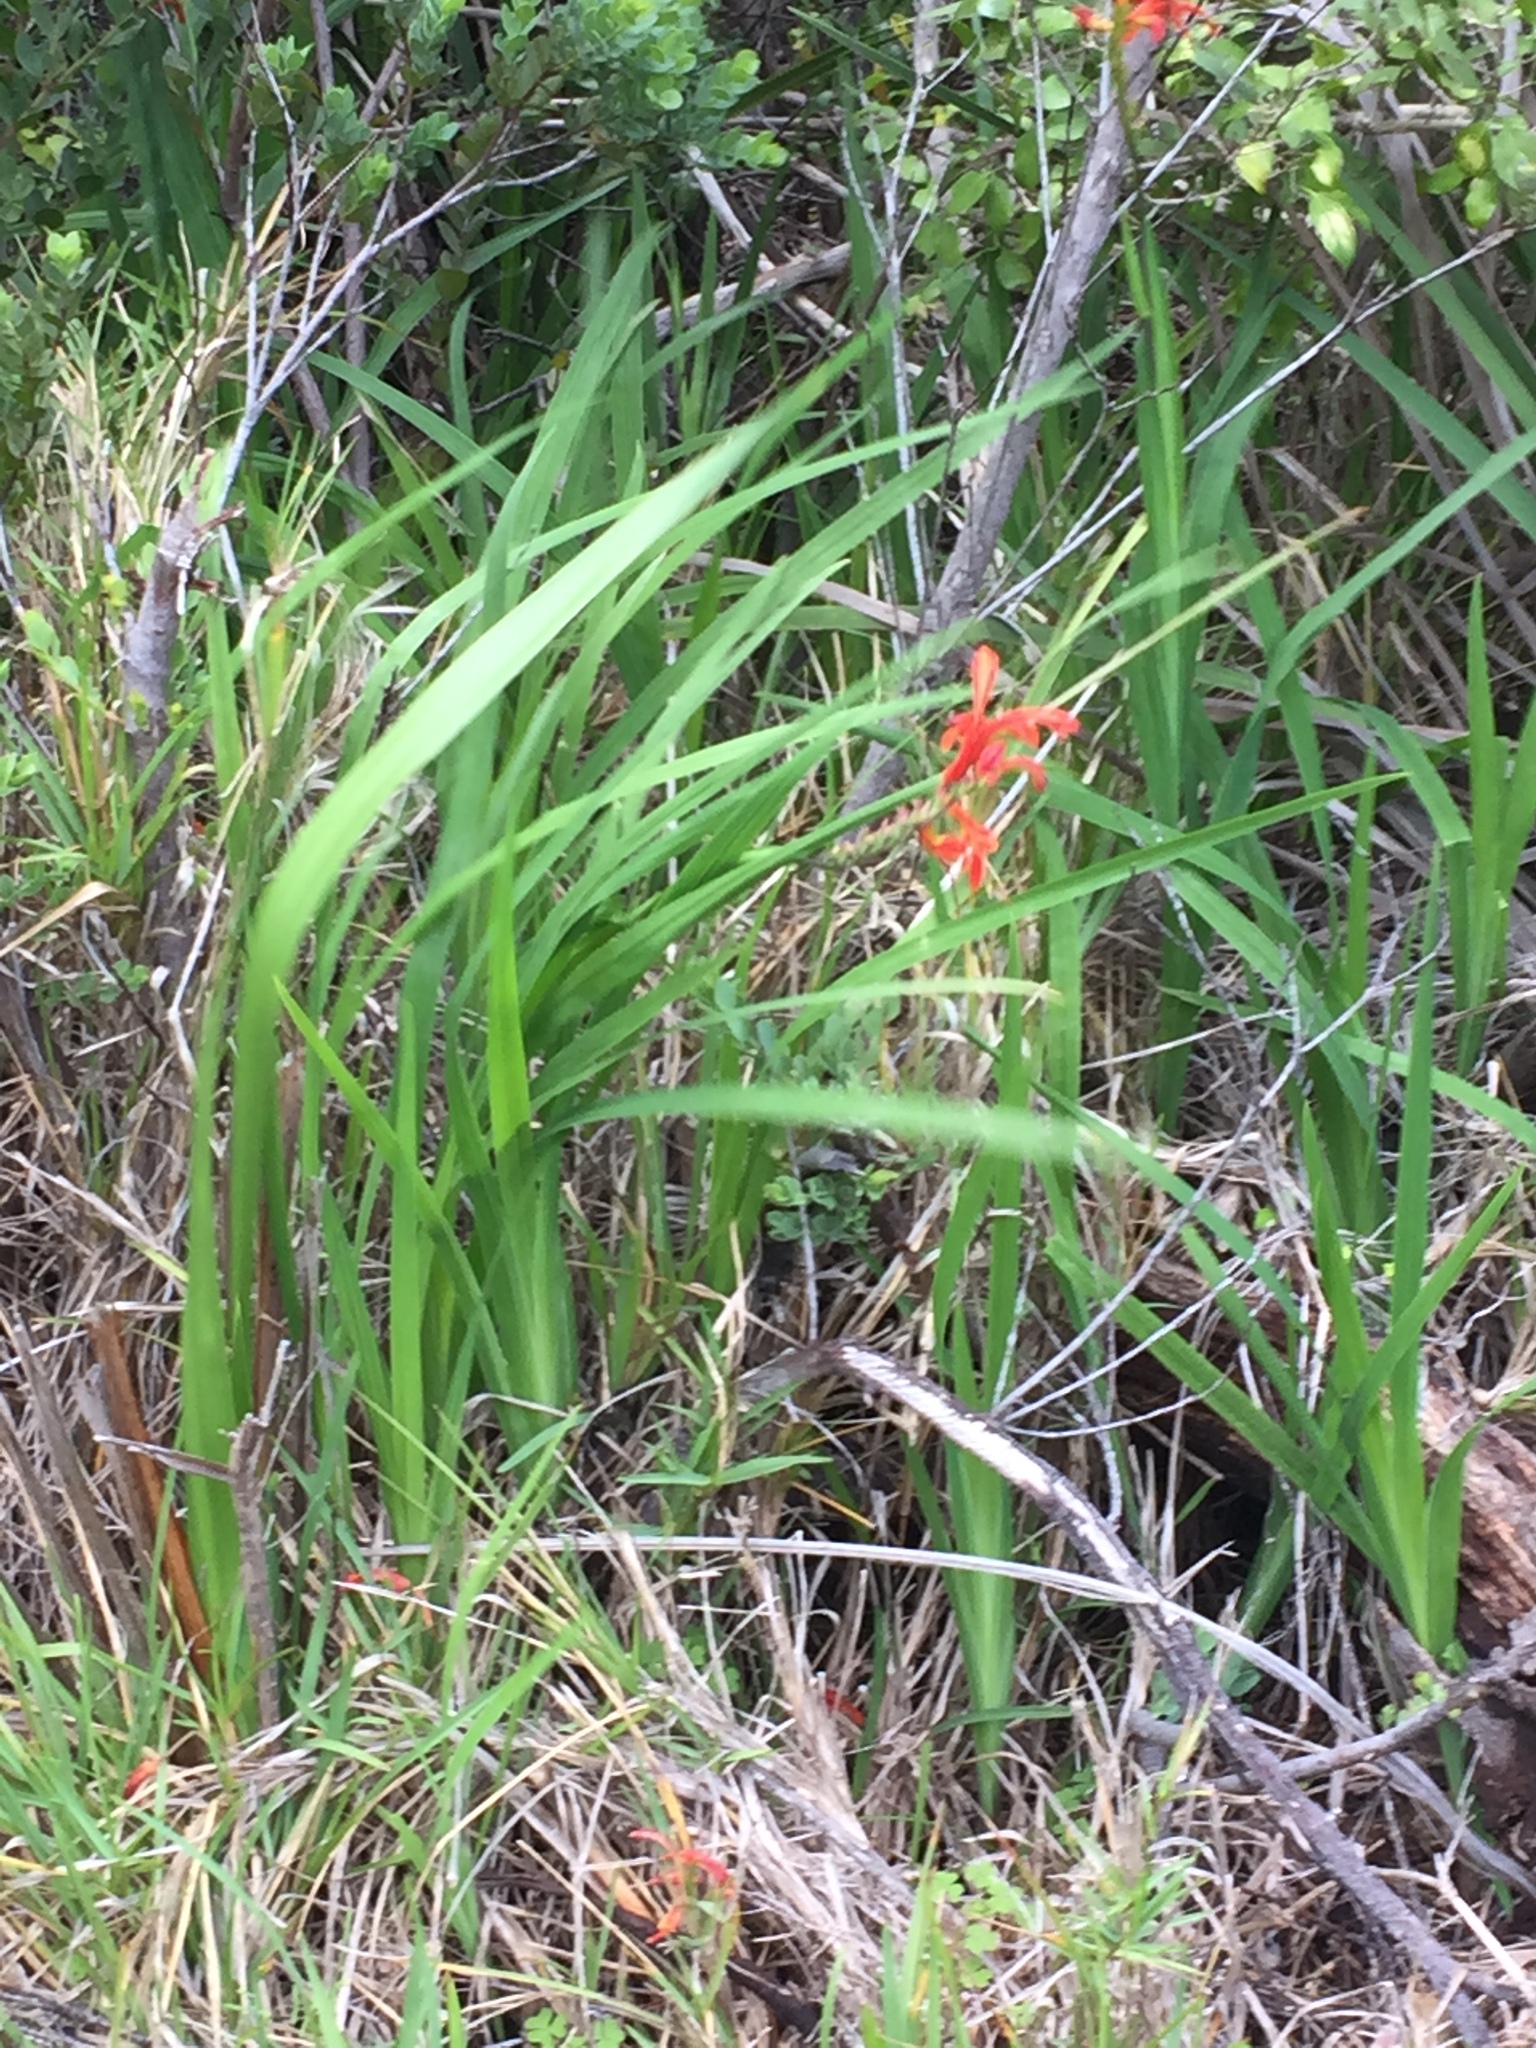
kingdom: Plantae
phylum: Tracheophyta
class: Liliopsida
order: Asparagales
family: Iridaceae
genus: Chasmanthe
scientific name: Chasmanthe aethiopica
